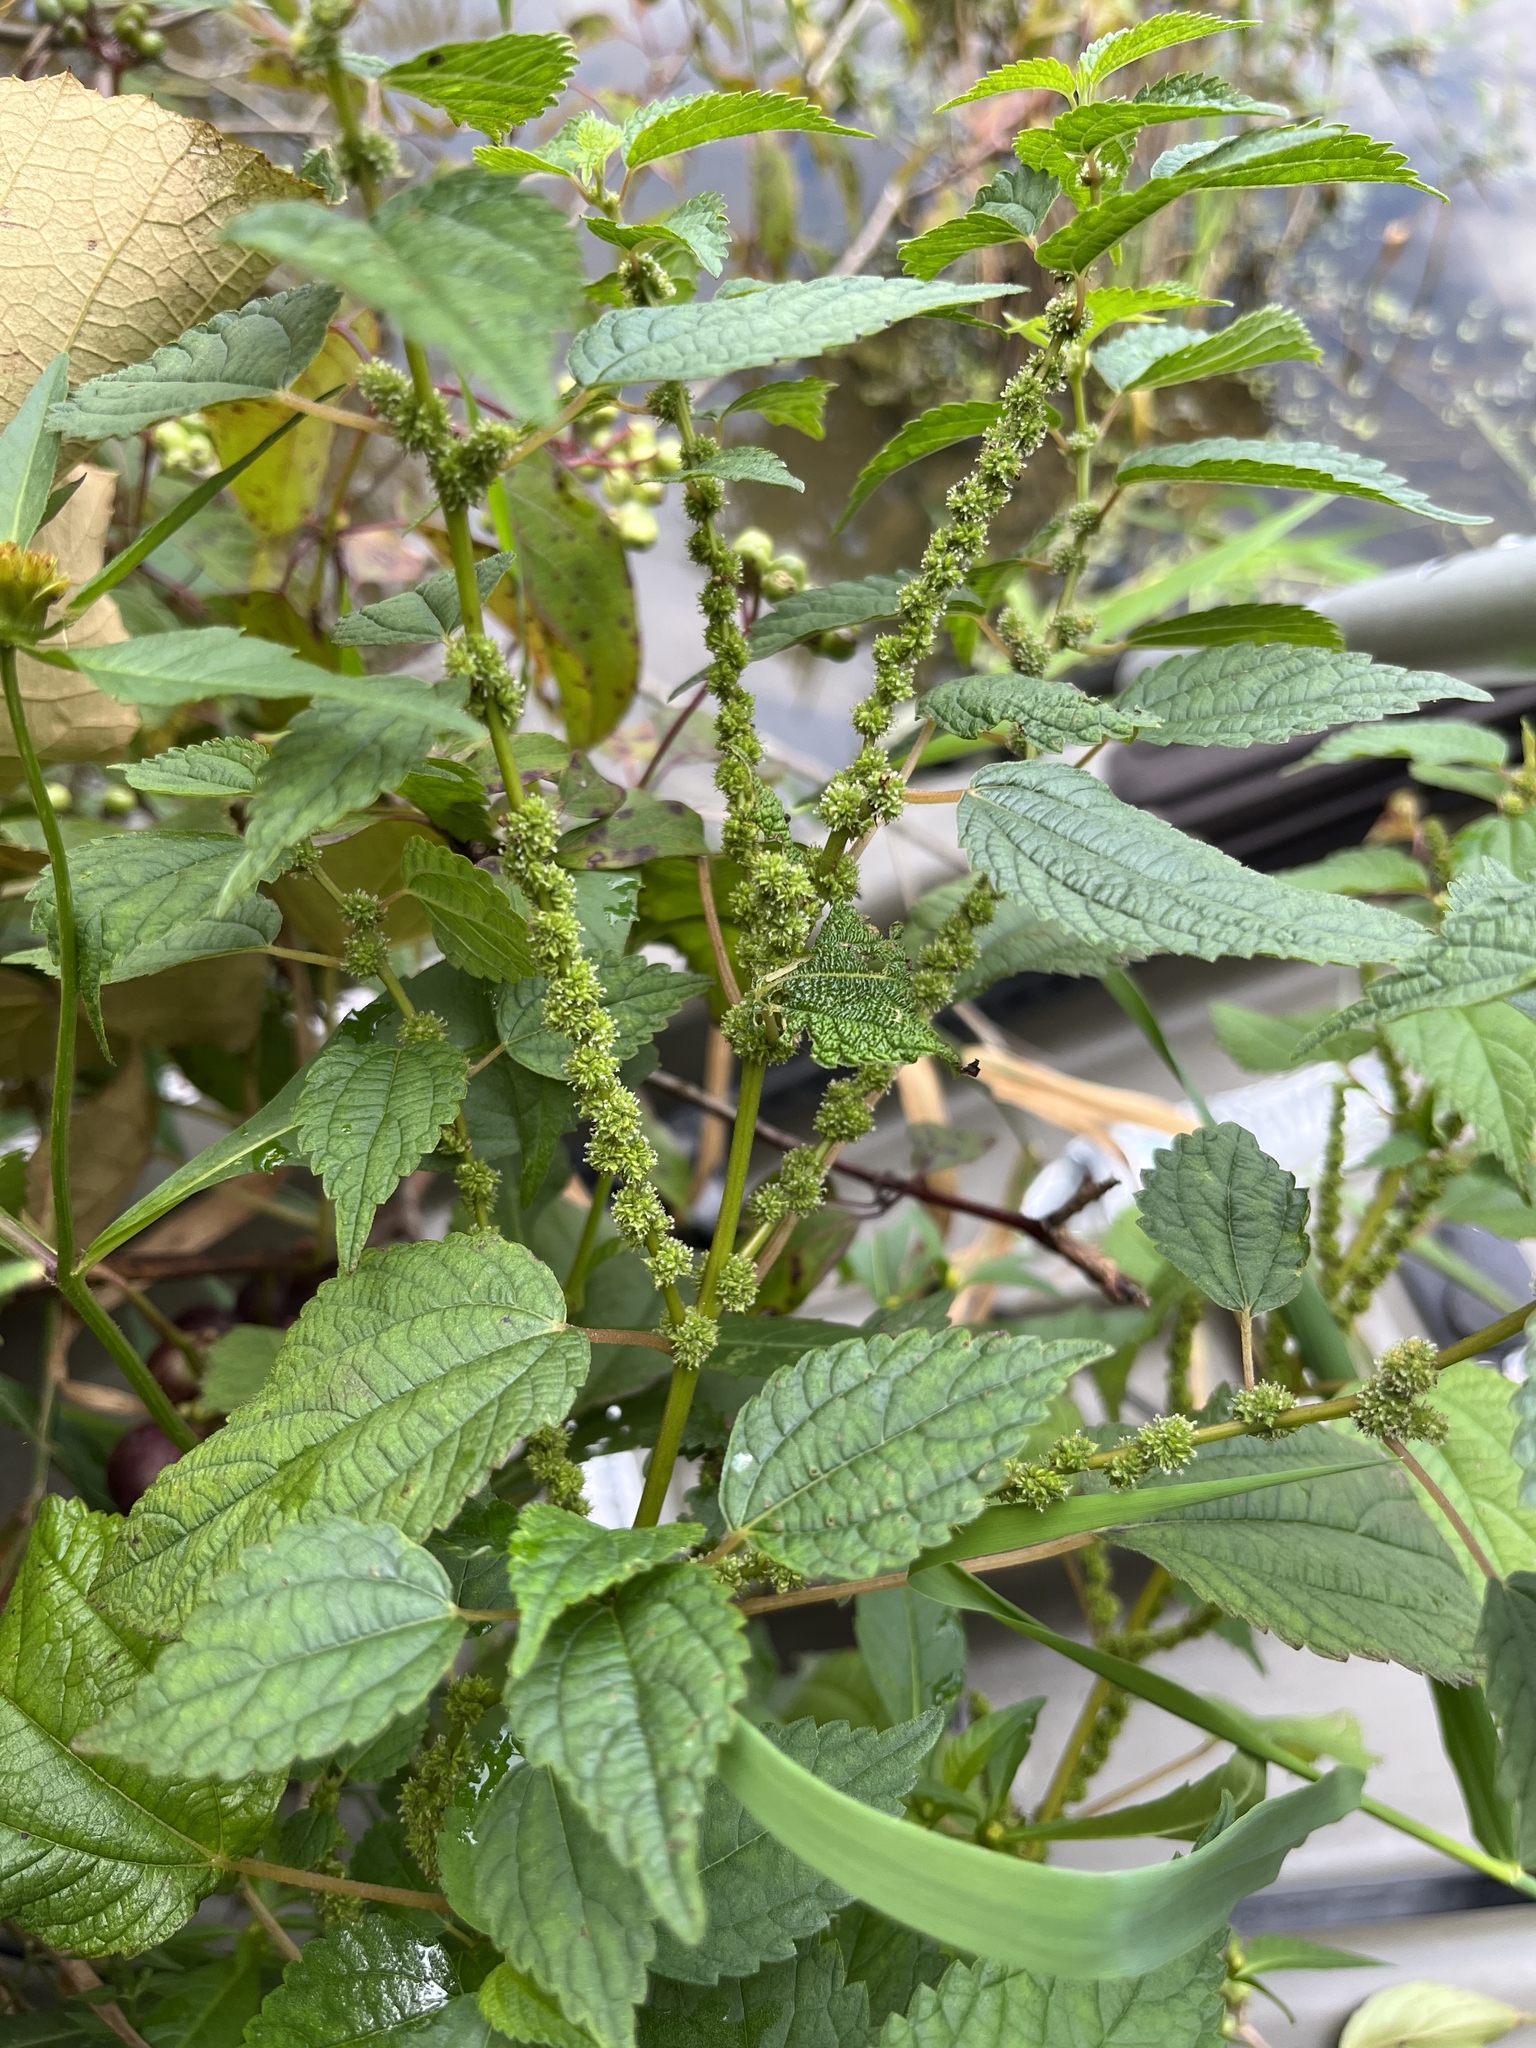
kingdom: Plantae
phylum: Tracheophyta
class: Magnoliopsida
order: Rosales
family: Urticaceae
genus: Boehmeria
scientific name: Boehmeria cylindrica
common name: Bog-hemp
